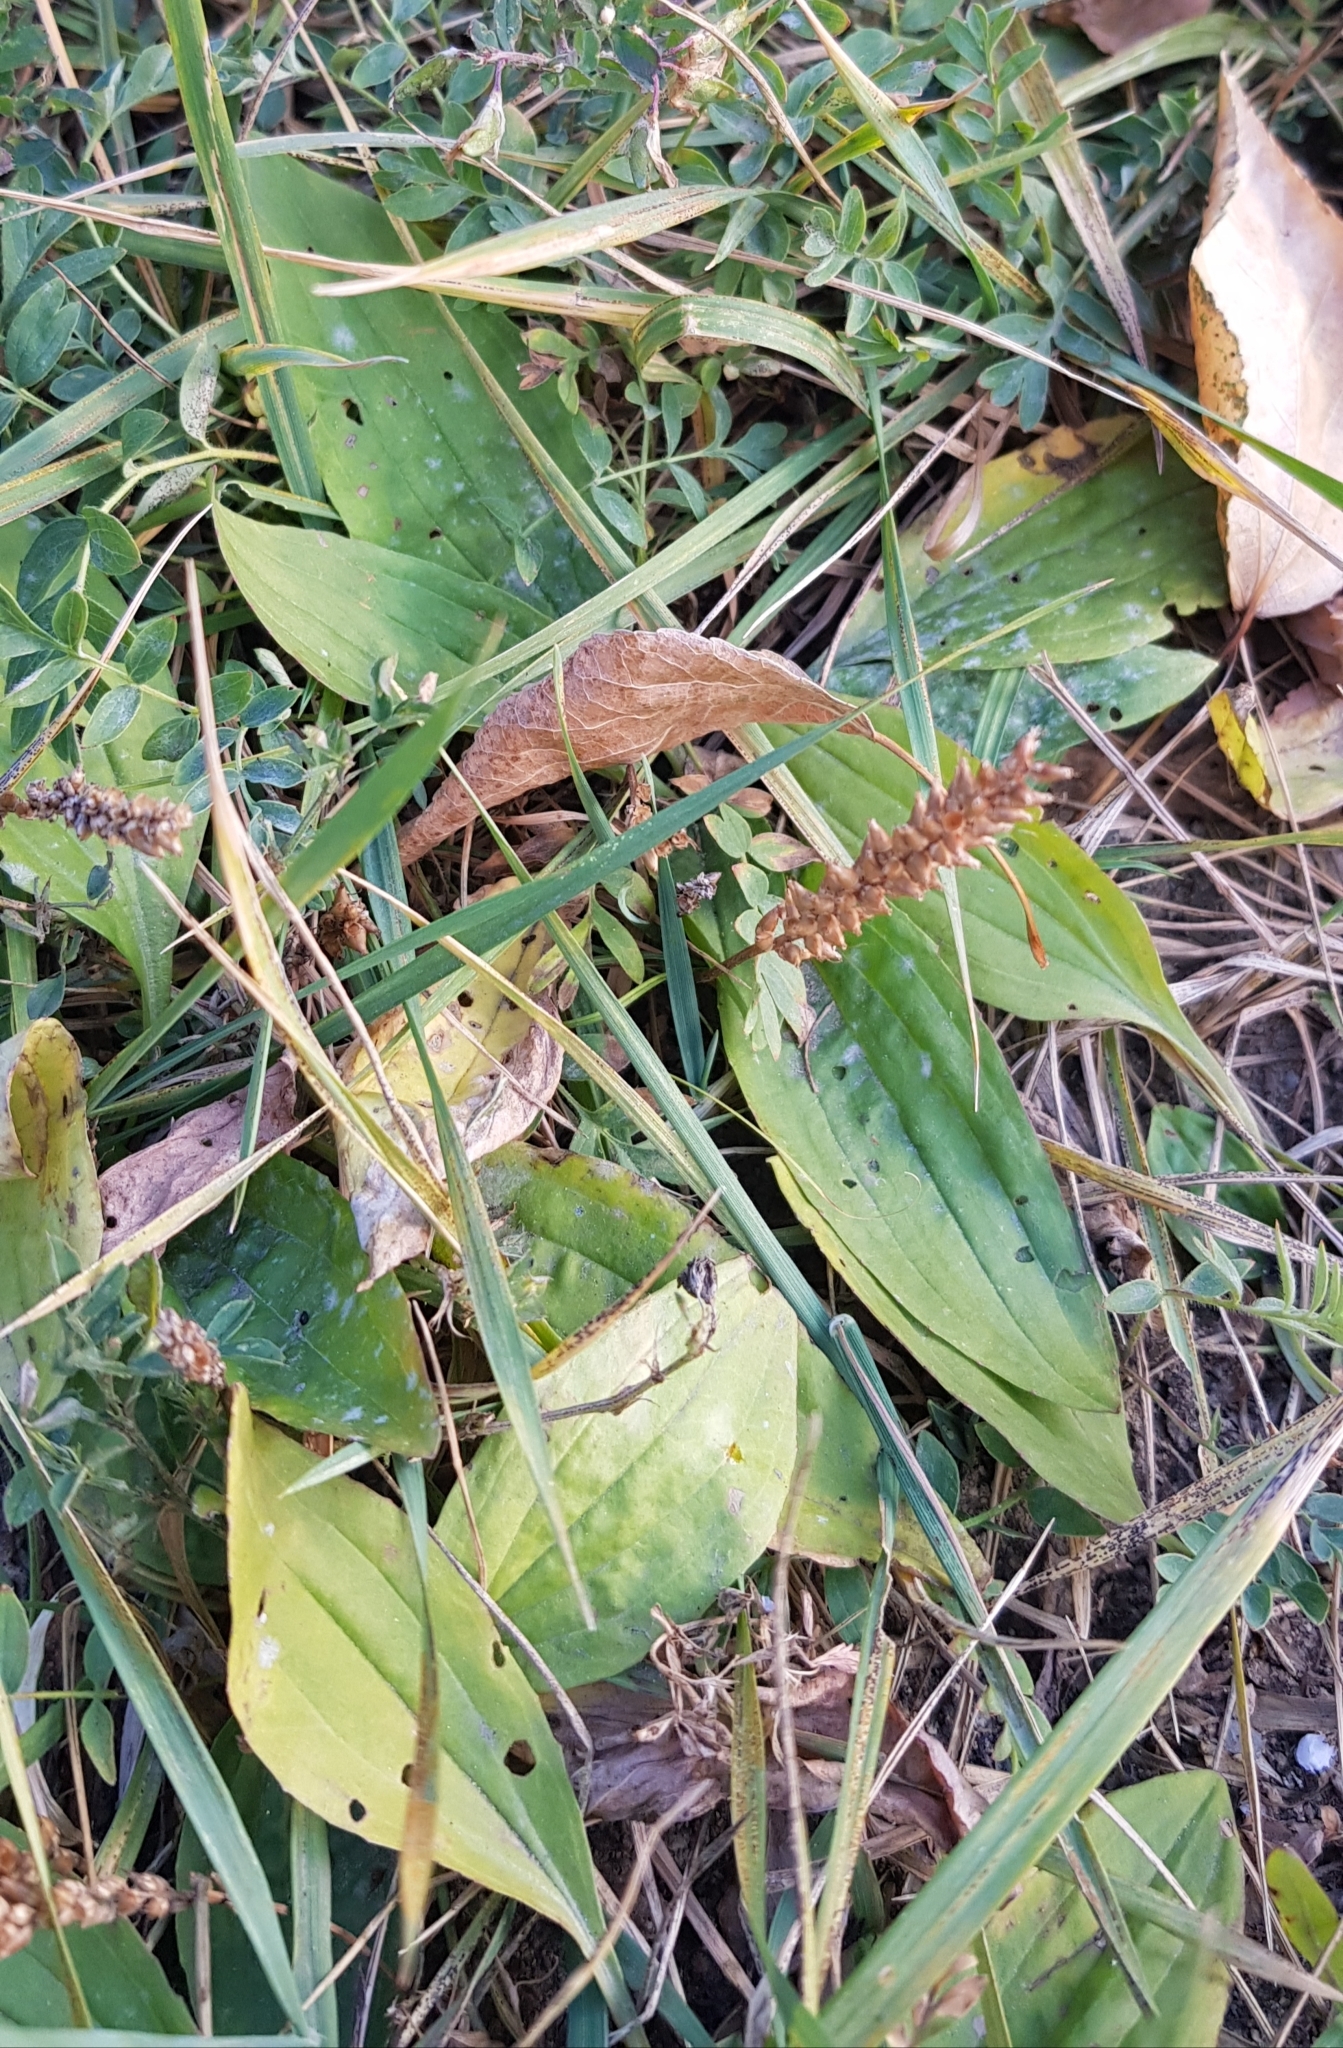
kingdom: Plantae
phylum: Tracheophyta
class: Magnoliopsida
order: Lamiales
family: Plantaginaceae
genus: Plantago
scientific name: Plantago depressa
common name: Depressed plantain
